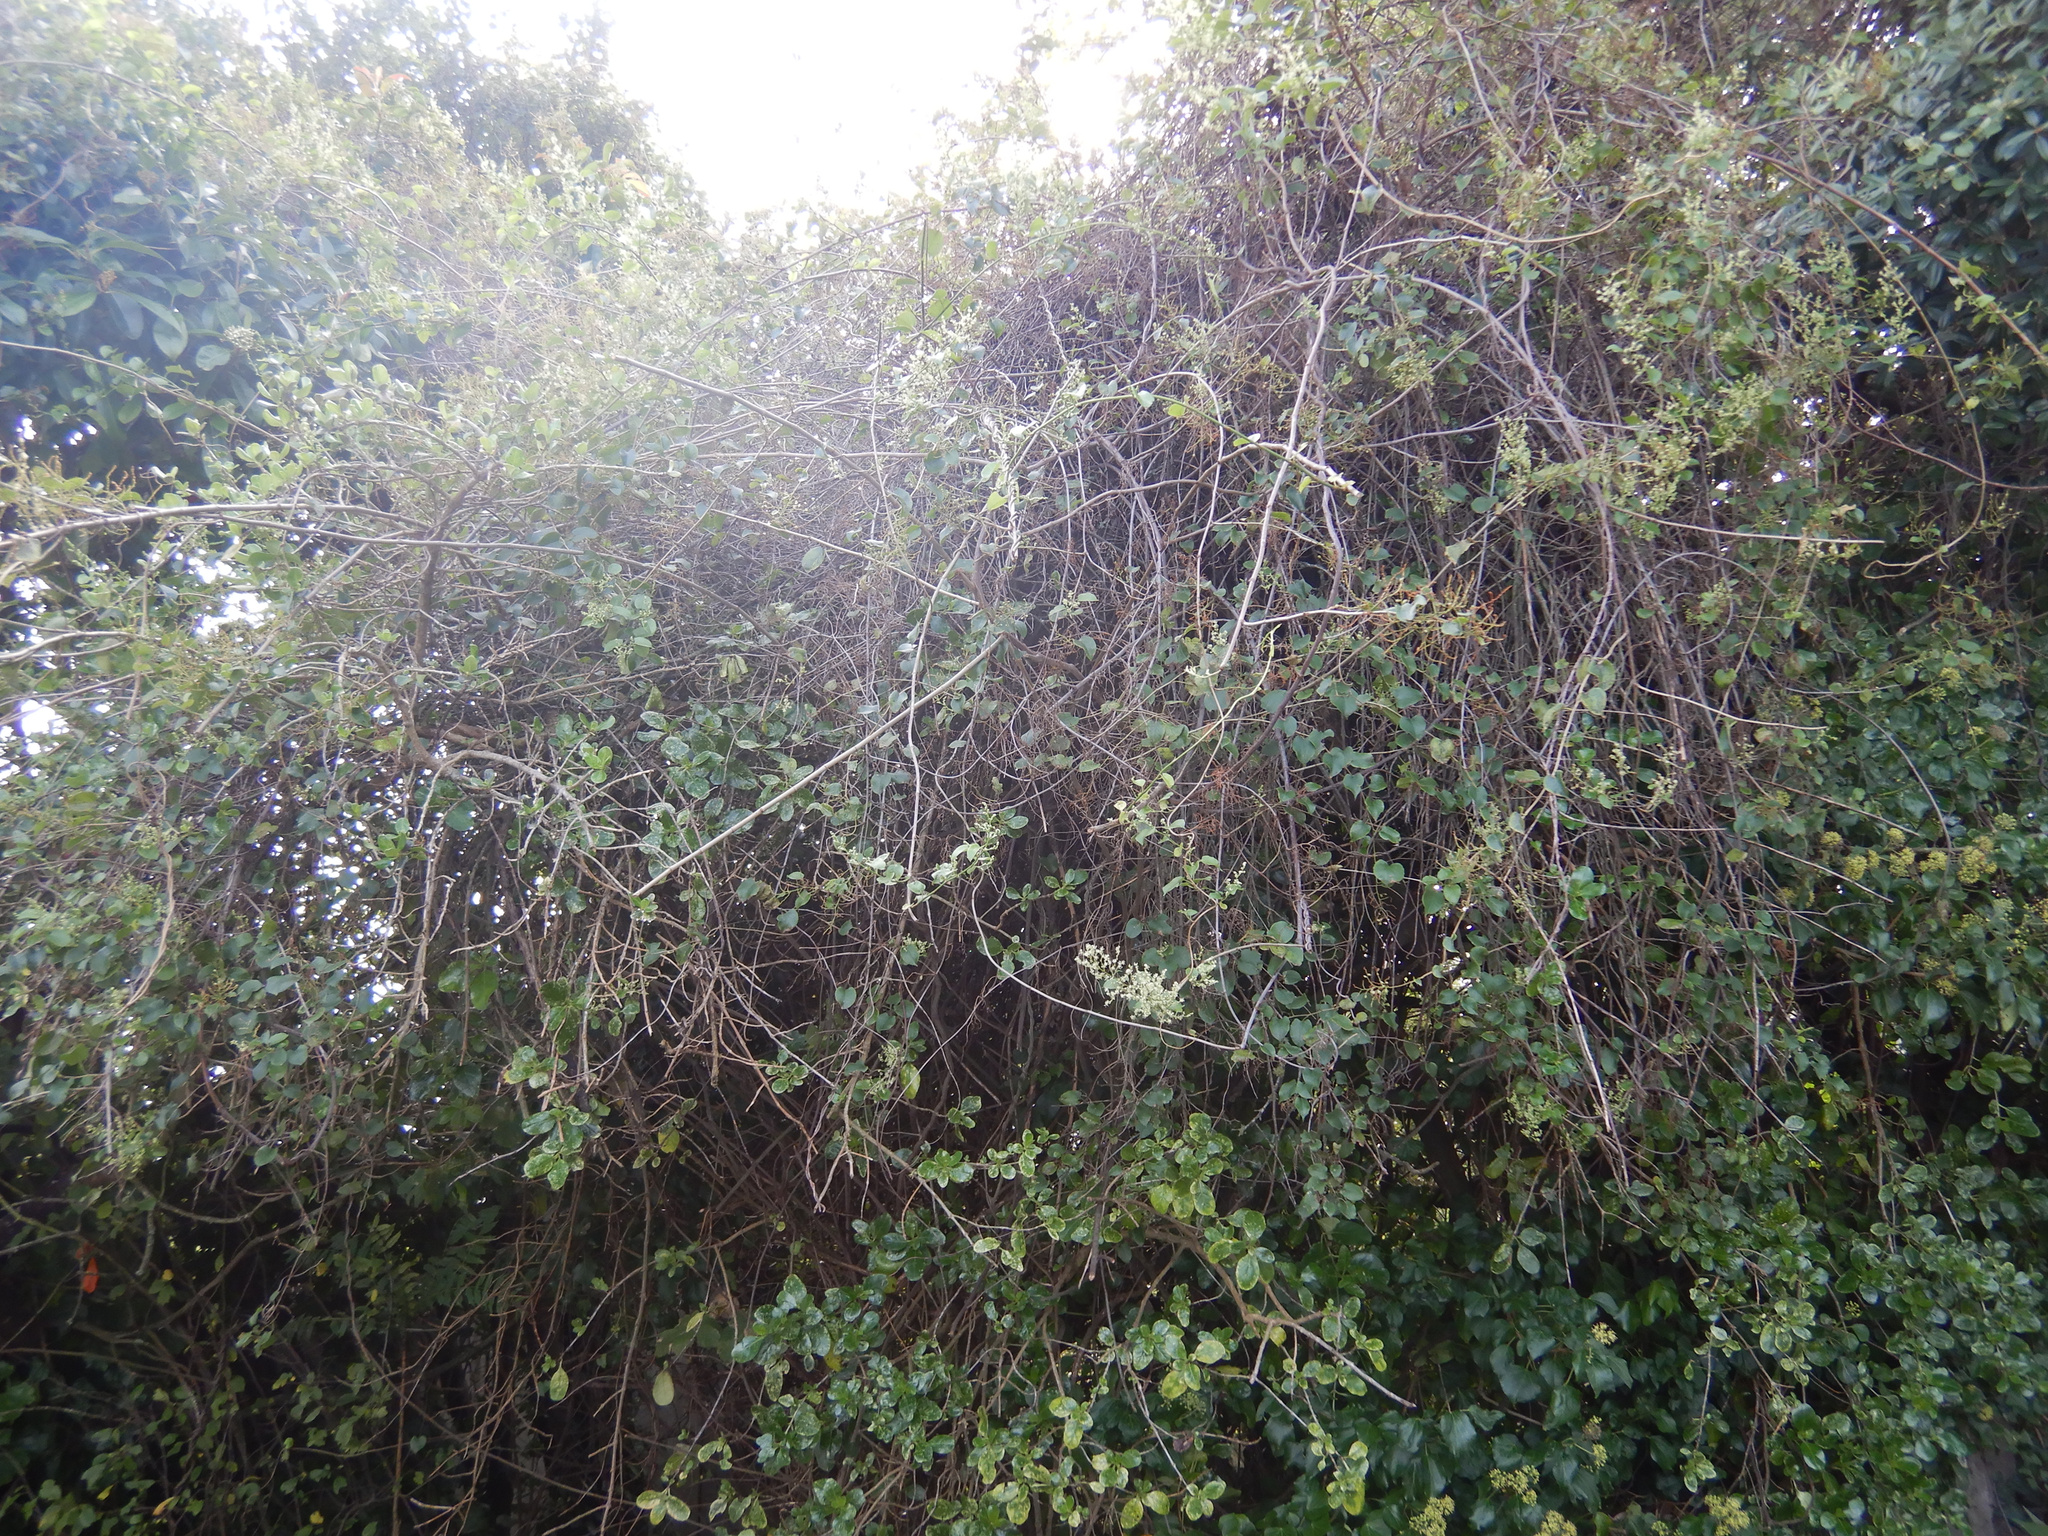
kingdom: Plantae
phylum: Tracheophyta
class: Magnoliopsida
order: Caryophyllales
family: Polygonaceae
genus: Muehlenbeckia
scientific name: Muehlenbeckia australis
